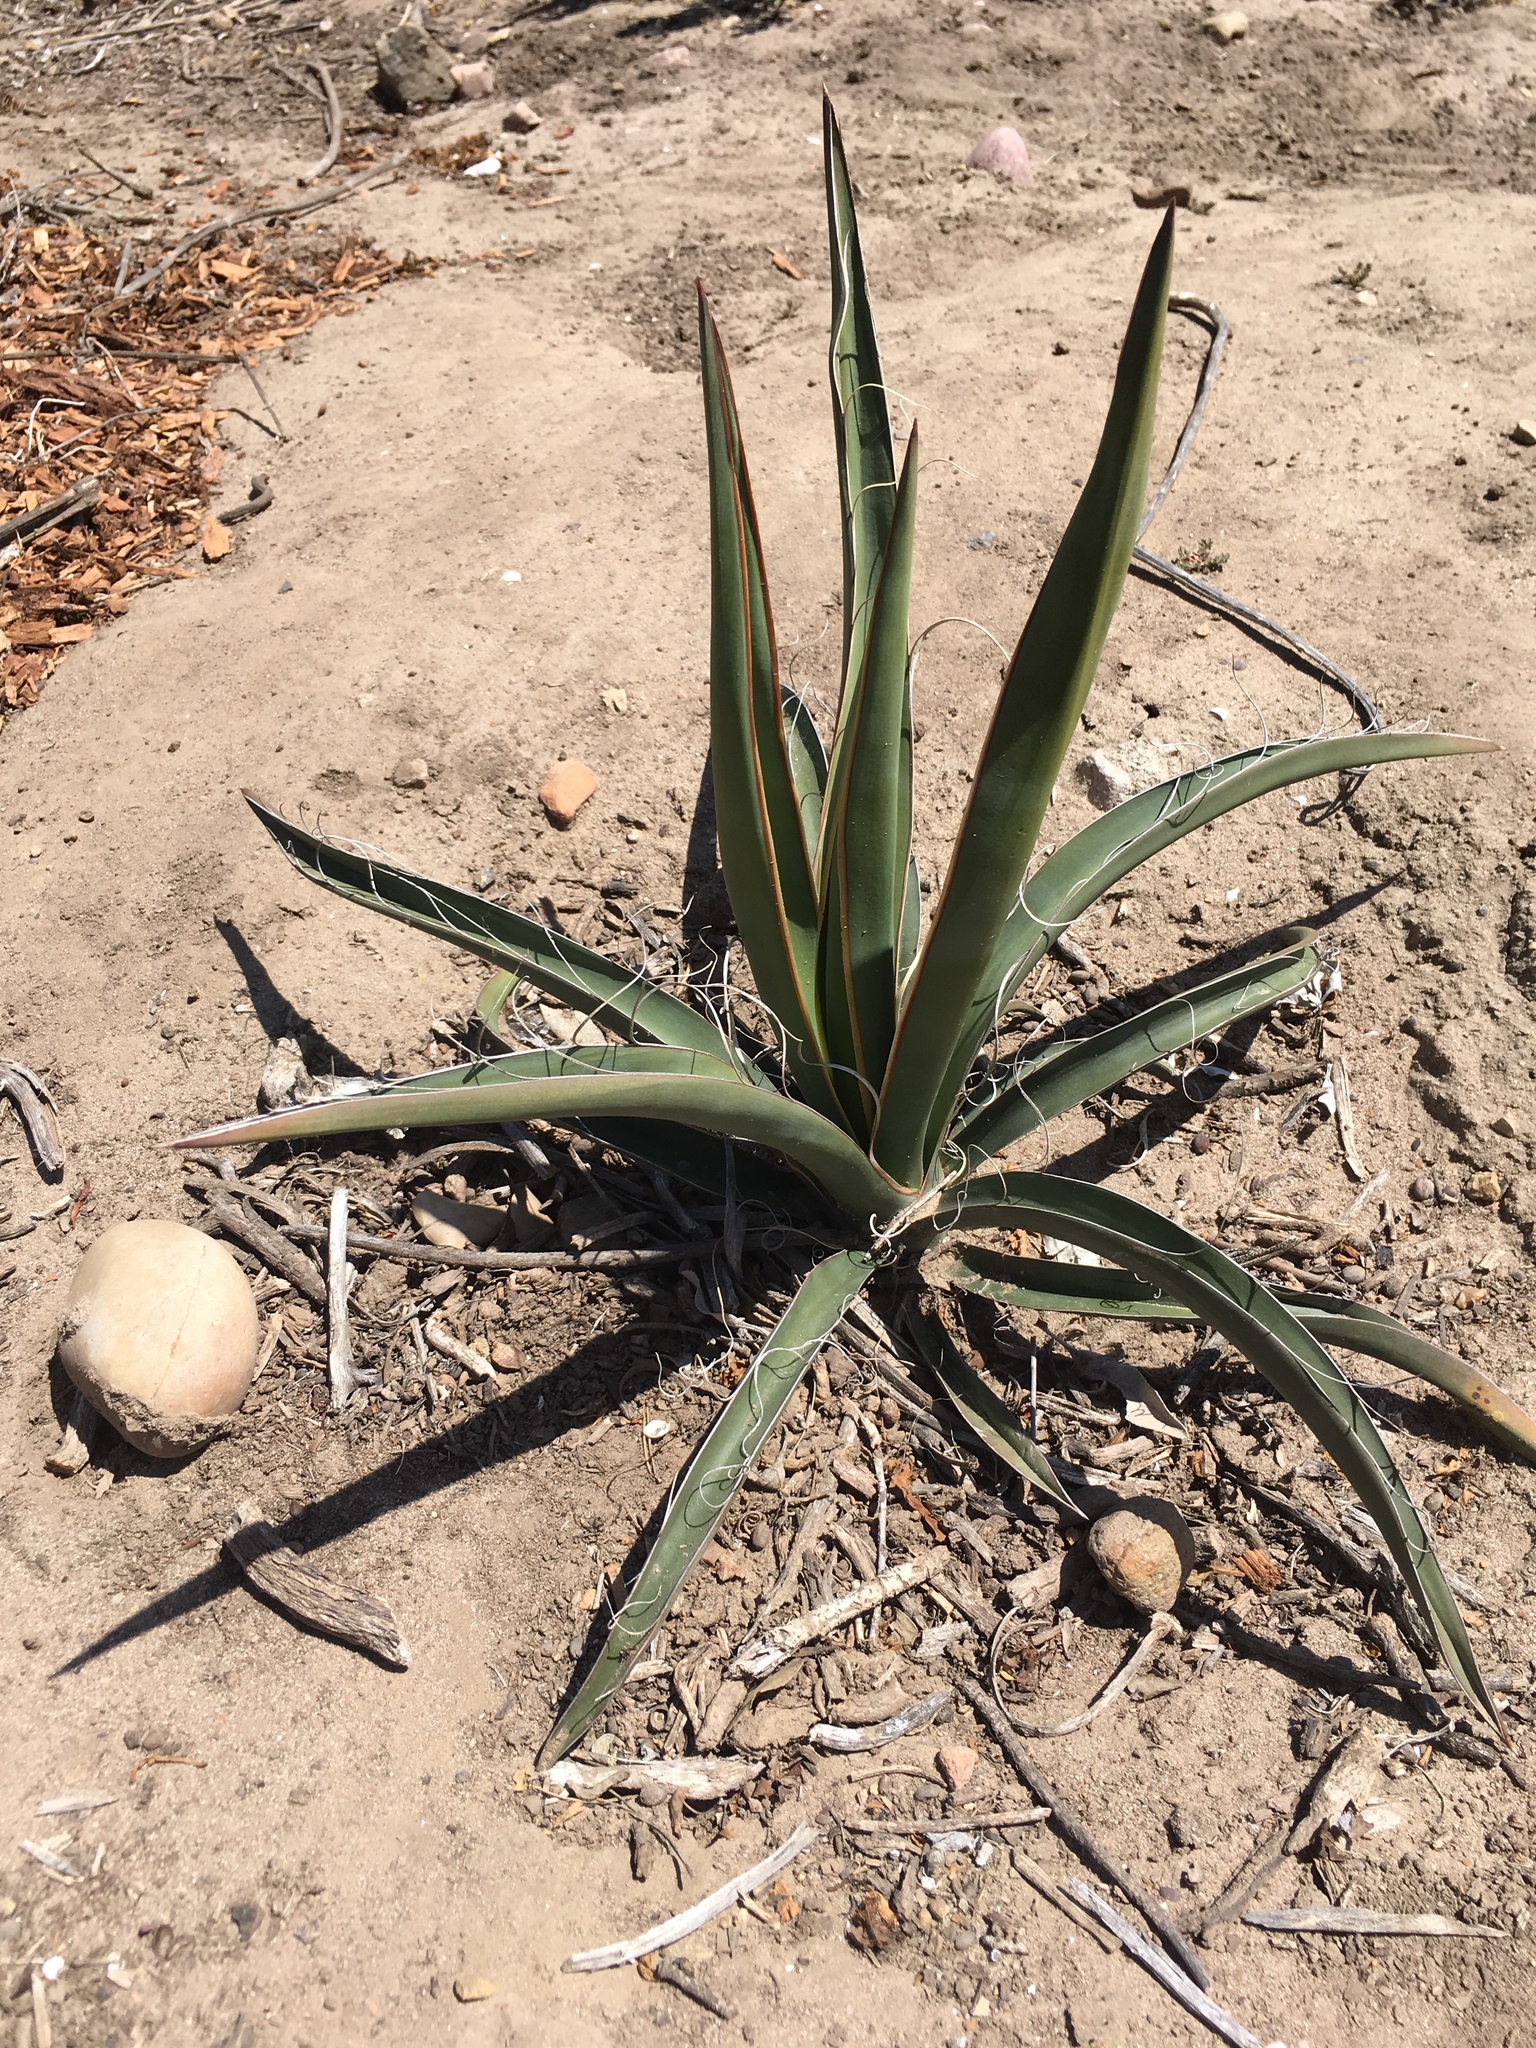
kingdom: Plantae
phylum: Tracheophyta
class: Liliopsida
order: Asparagales
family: Asparagaceae
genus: Yucca
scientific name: Yucca schidigera
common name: Mojave yucca
